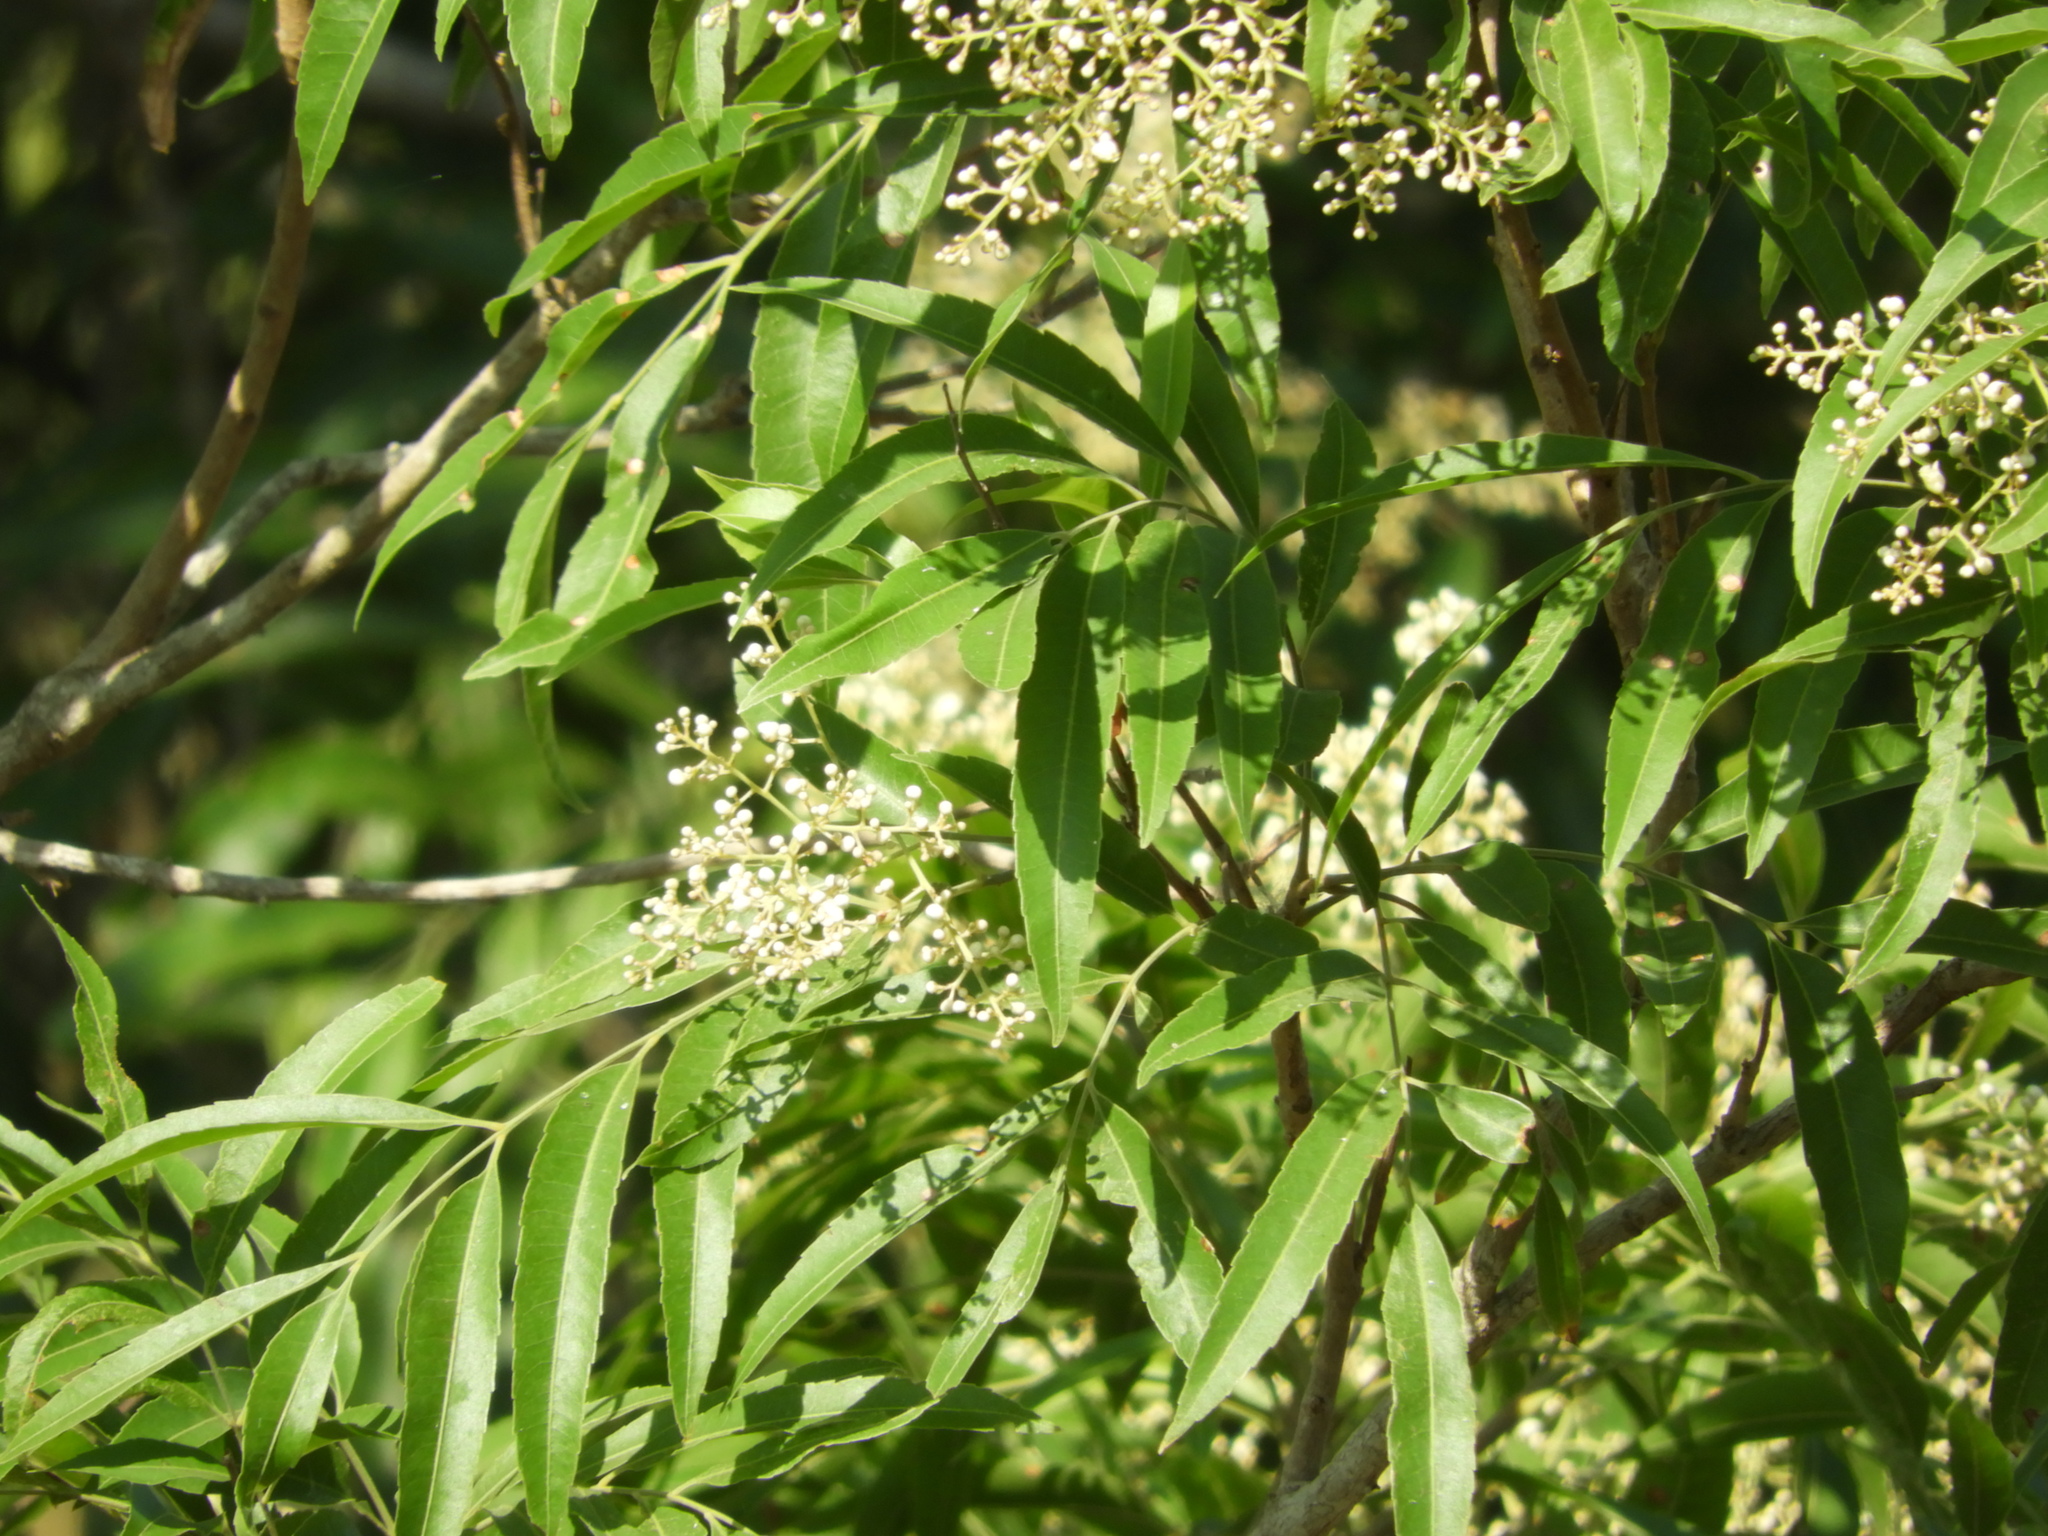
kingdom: Plantae
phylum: Tracheophyta
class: Magnoliopsida
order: Sapindales
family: Sapindaceae
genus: Thouinidium
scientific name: Thouinidium decandrum
